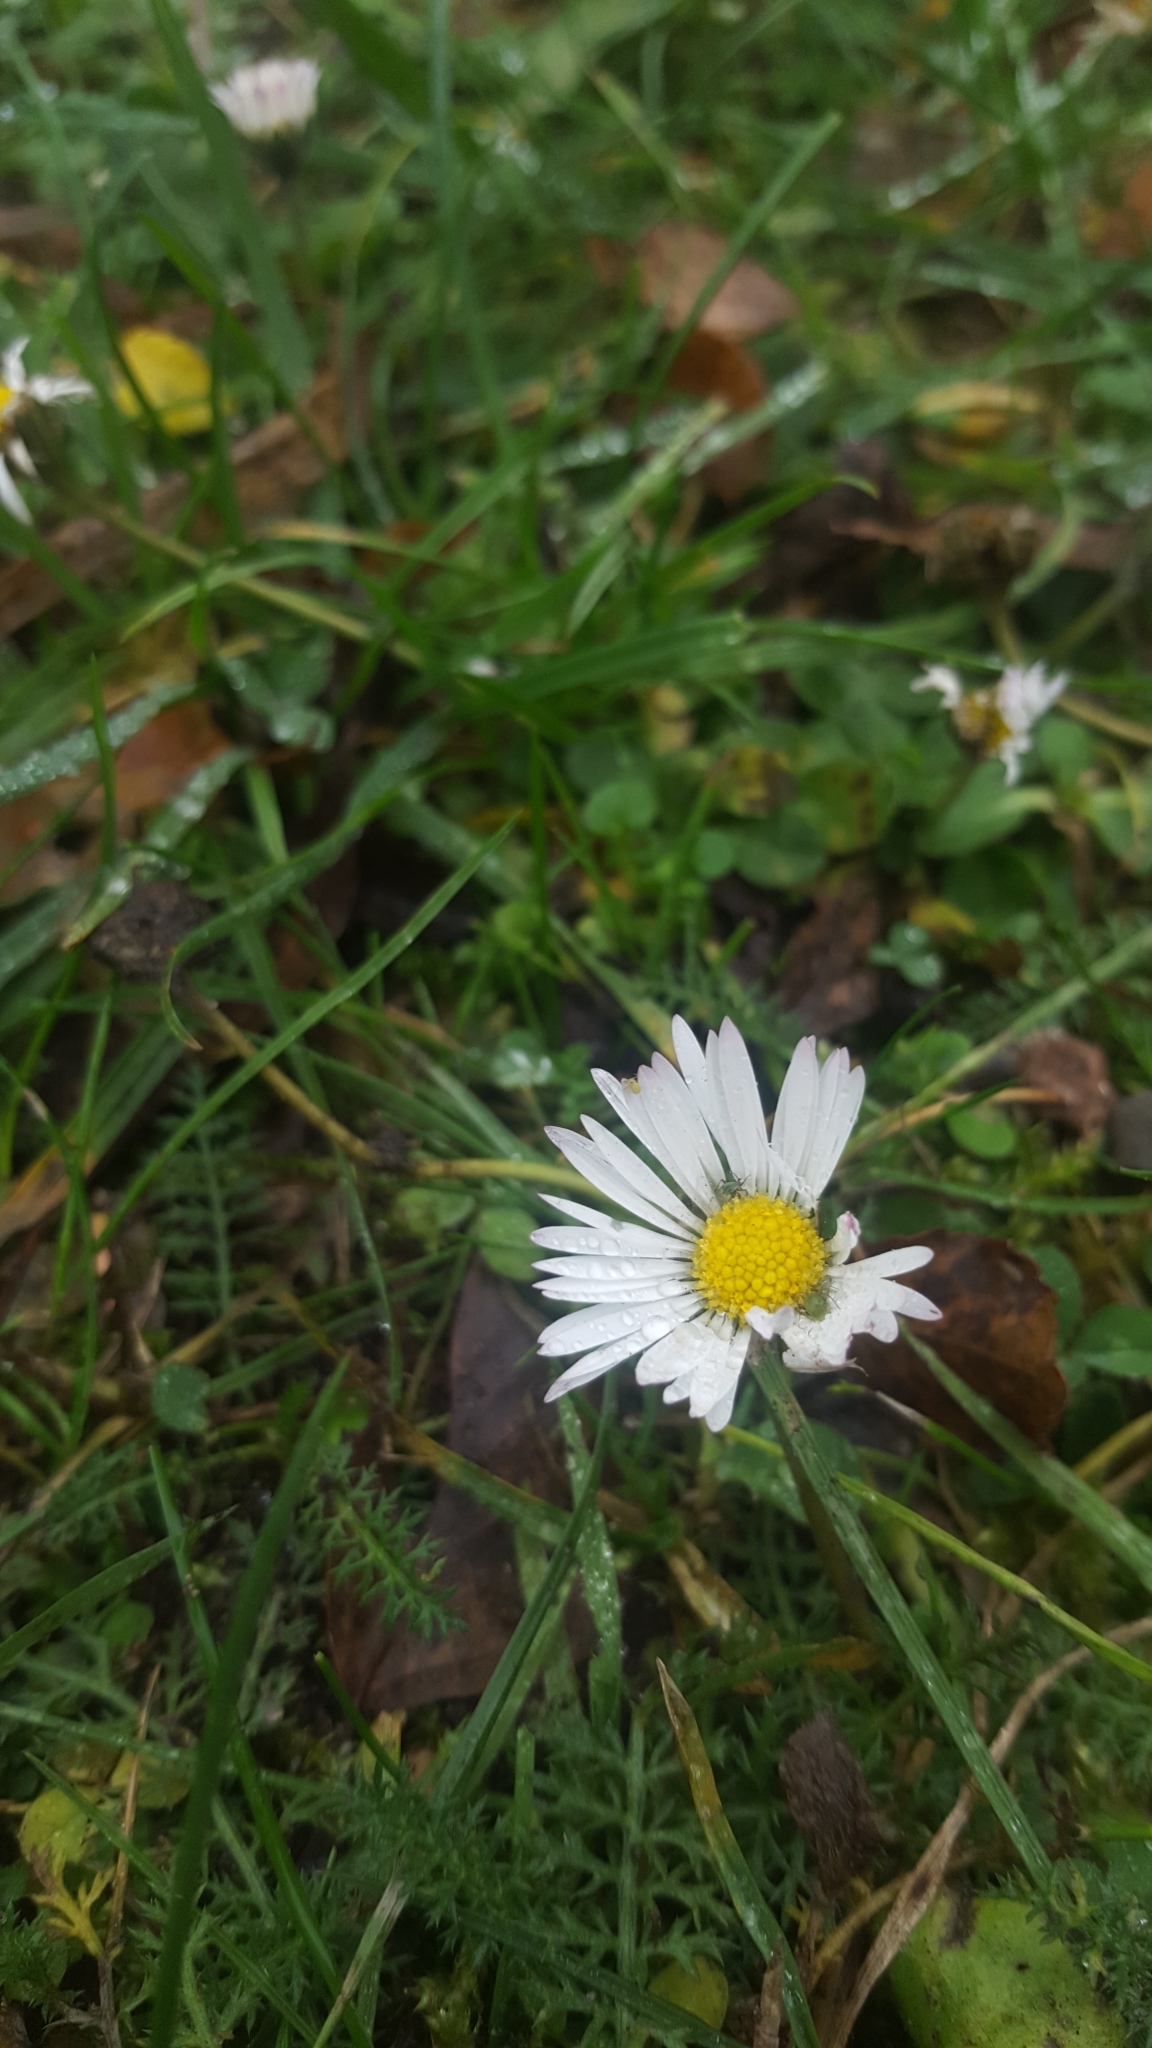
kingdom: Plantae
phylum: Tracheophyta
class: Magnoliopsida
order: Asterales
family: Asteraceae
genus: Bellis
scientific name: Bellis perennis
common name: Lawndaisy
